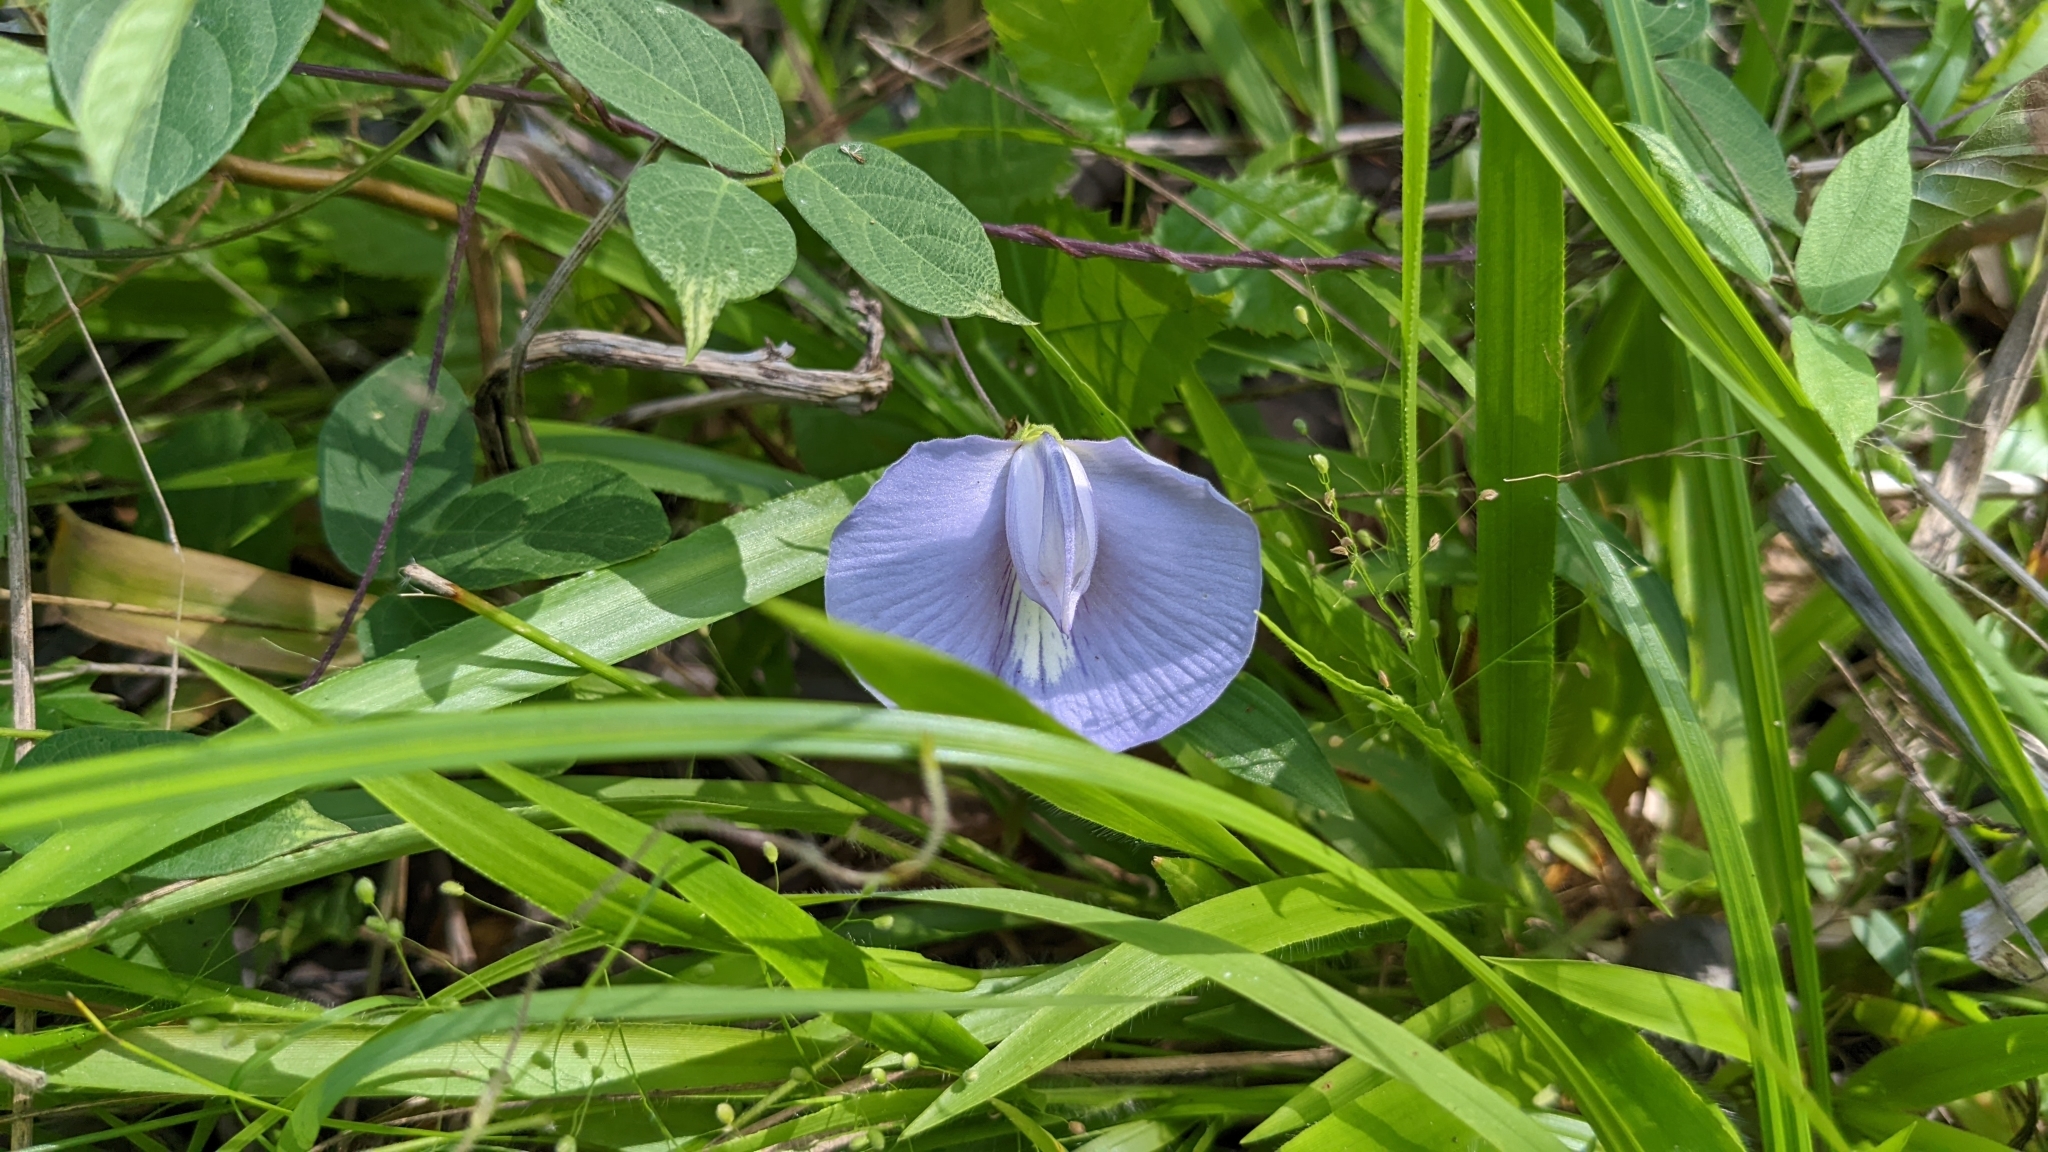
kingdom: Plantae
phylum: Tracheophyta
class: Magnoliopsida
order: Fabales
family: Fabaceae
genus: Centrosema
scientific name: Centrosema virginianum
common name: Butterfly-pea
